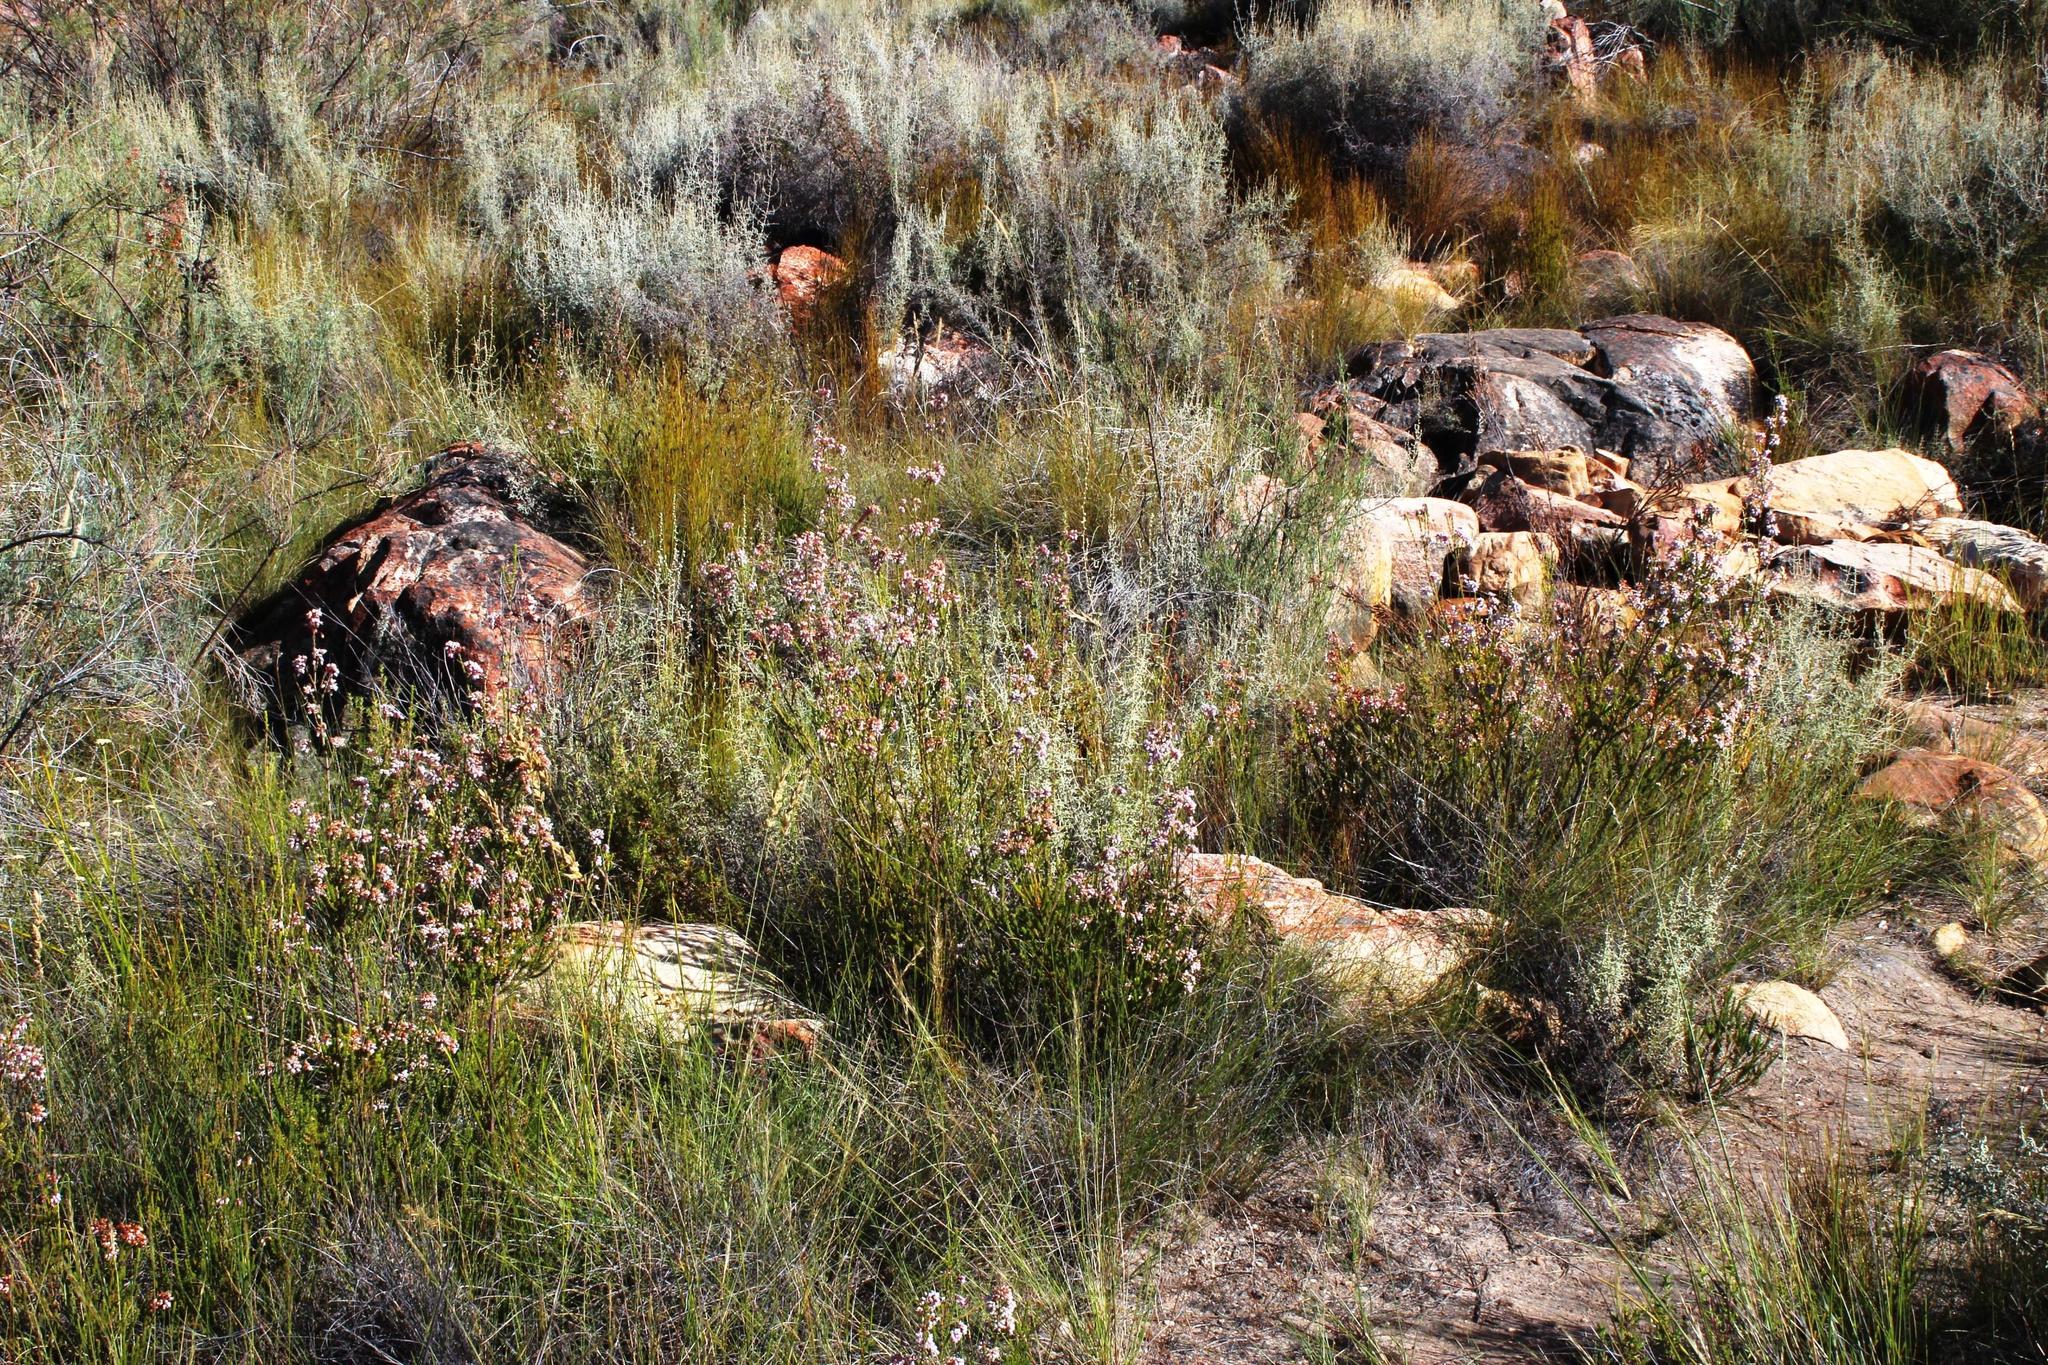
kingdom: Plantae
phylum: Tracheophyta
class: Magnoliopsida
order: Ericales
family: Ericaceae
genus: Erica
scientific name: Erica verecunda
